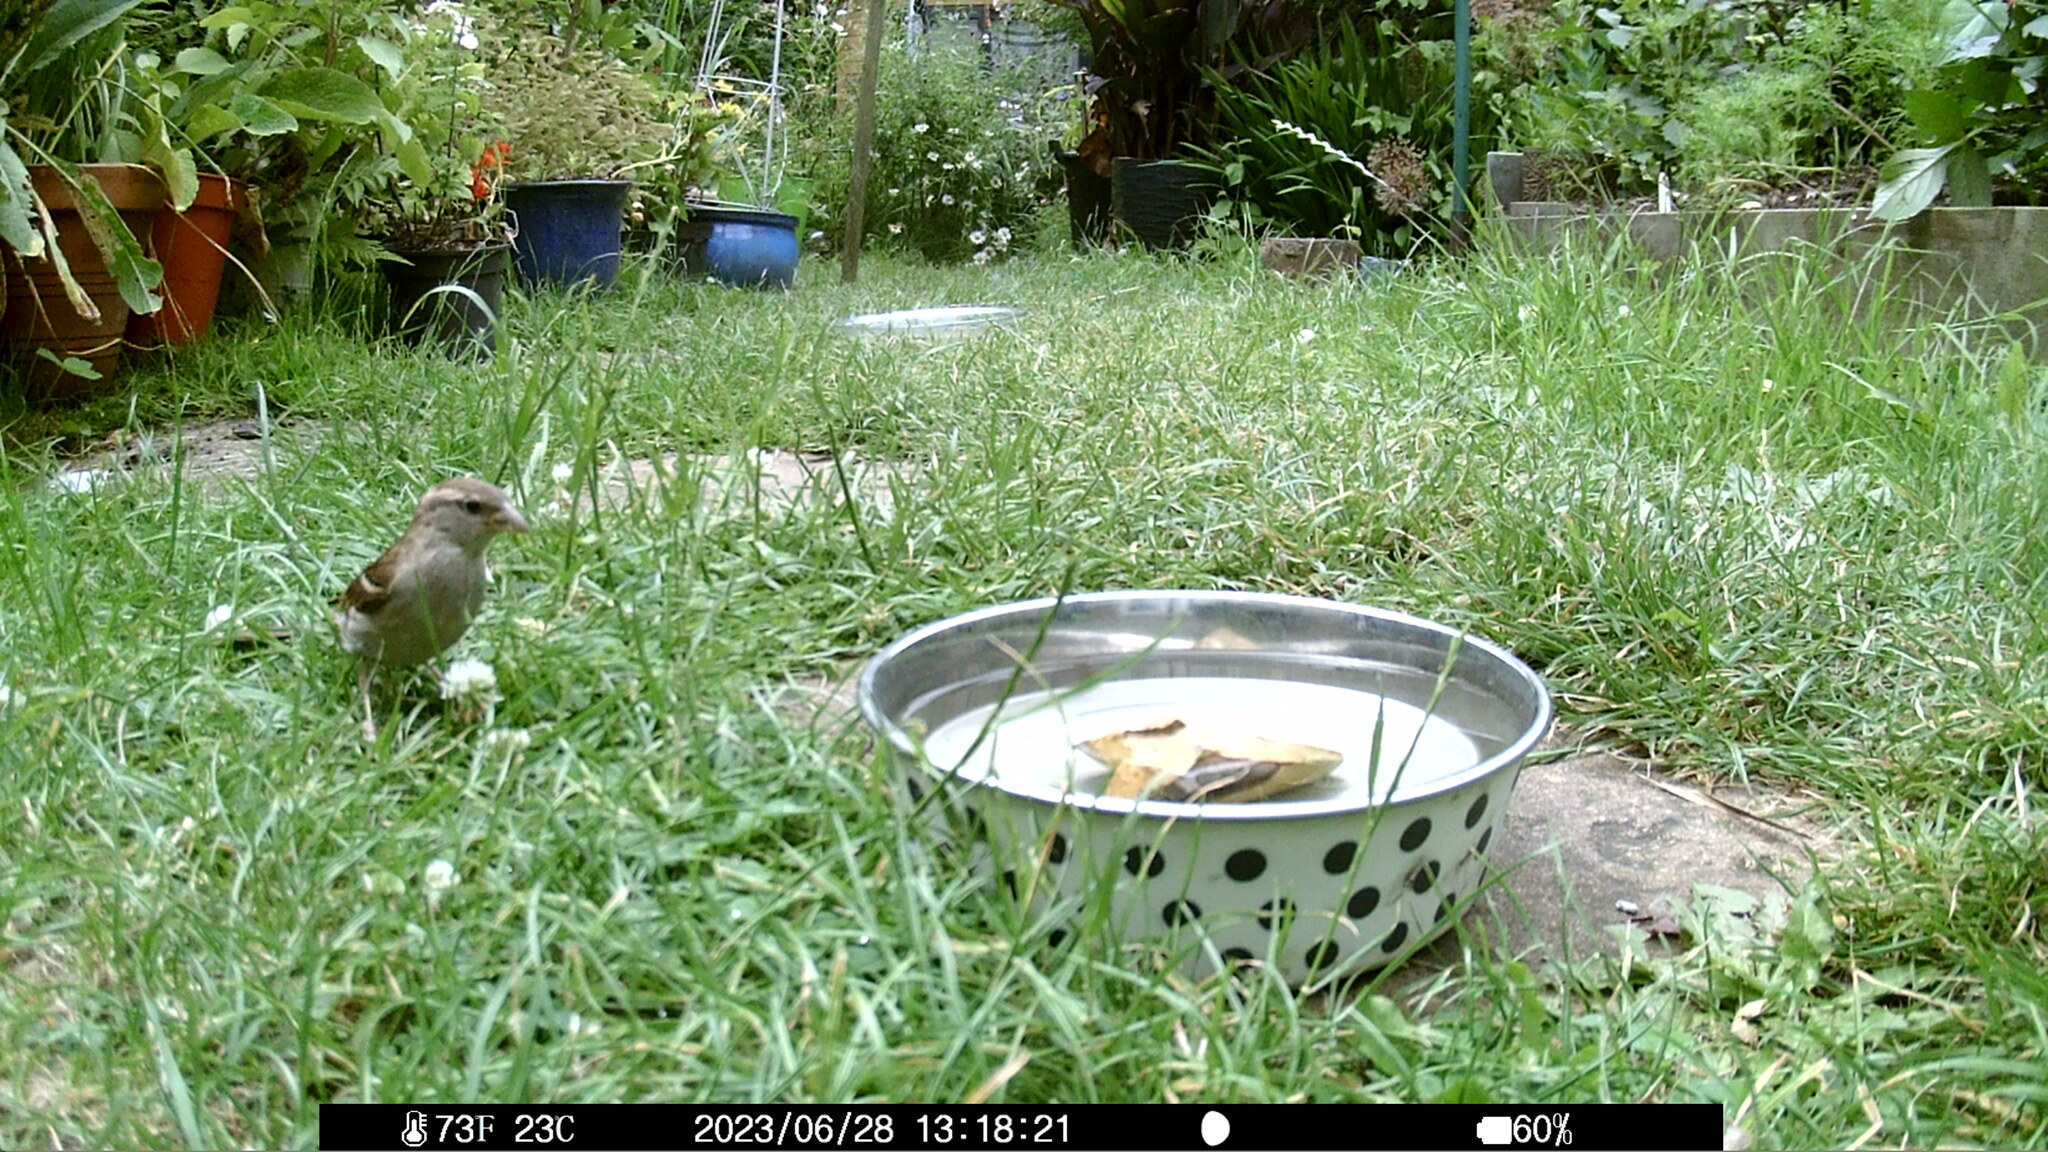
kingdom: Animalia
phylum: Chordata
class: Aves
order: Passeriformes
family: Passeridae
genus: Passer
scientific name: Passer domesticus
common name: House sparrow
